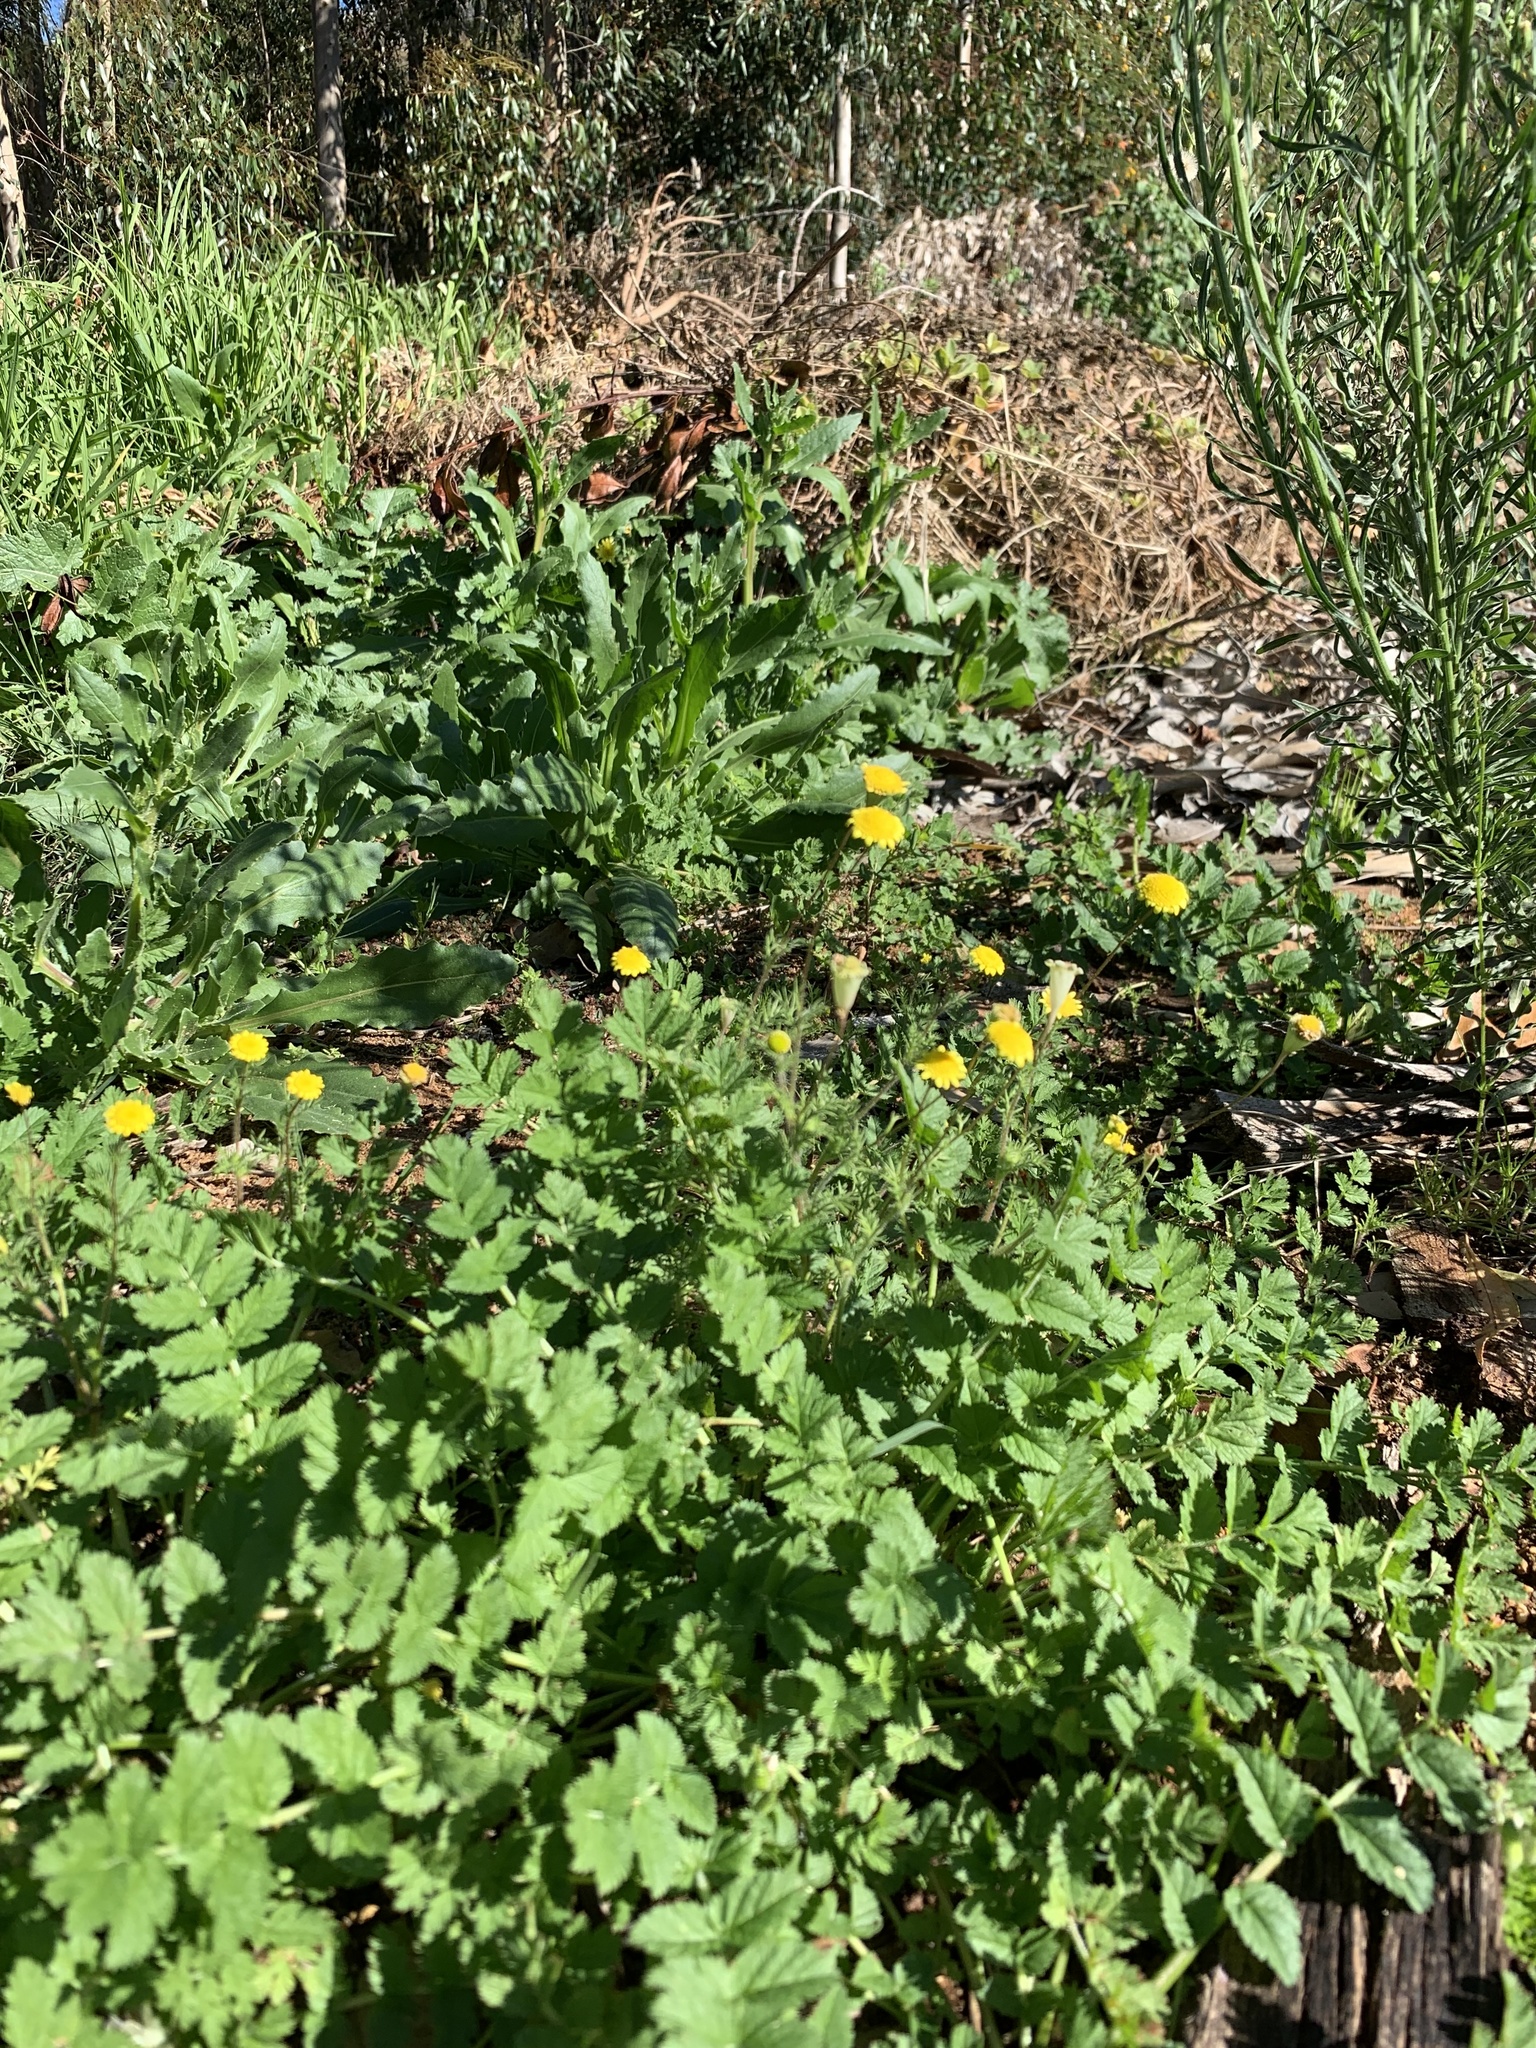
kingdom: Plantae
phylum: Tracheophyta
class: Magnoliopsida
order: Asterales
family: Asteraceae
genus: Cotula
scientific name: Cotula pruinosa
